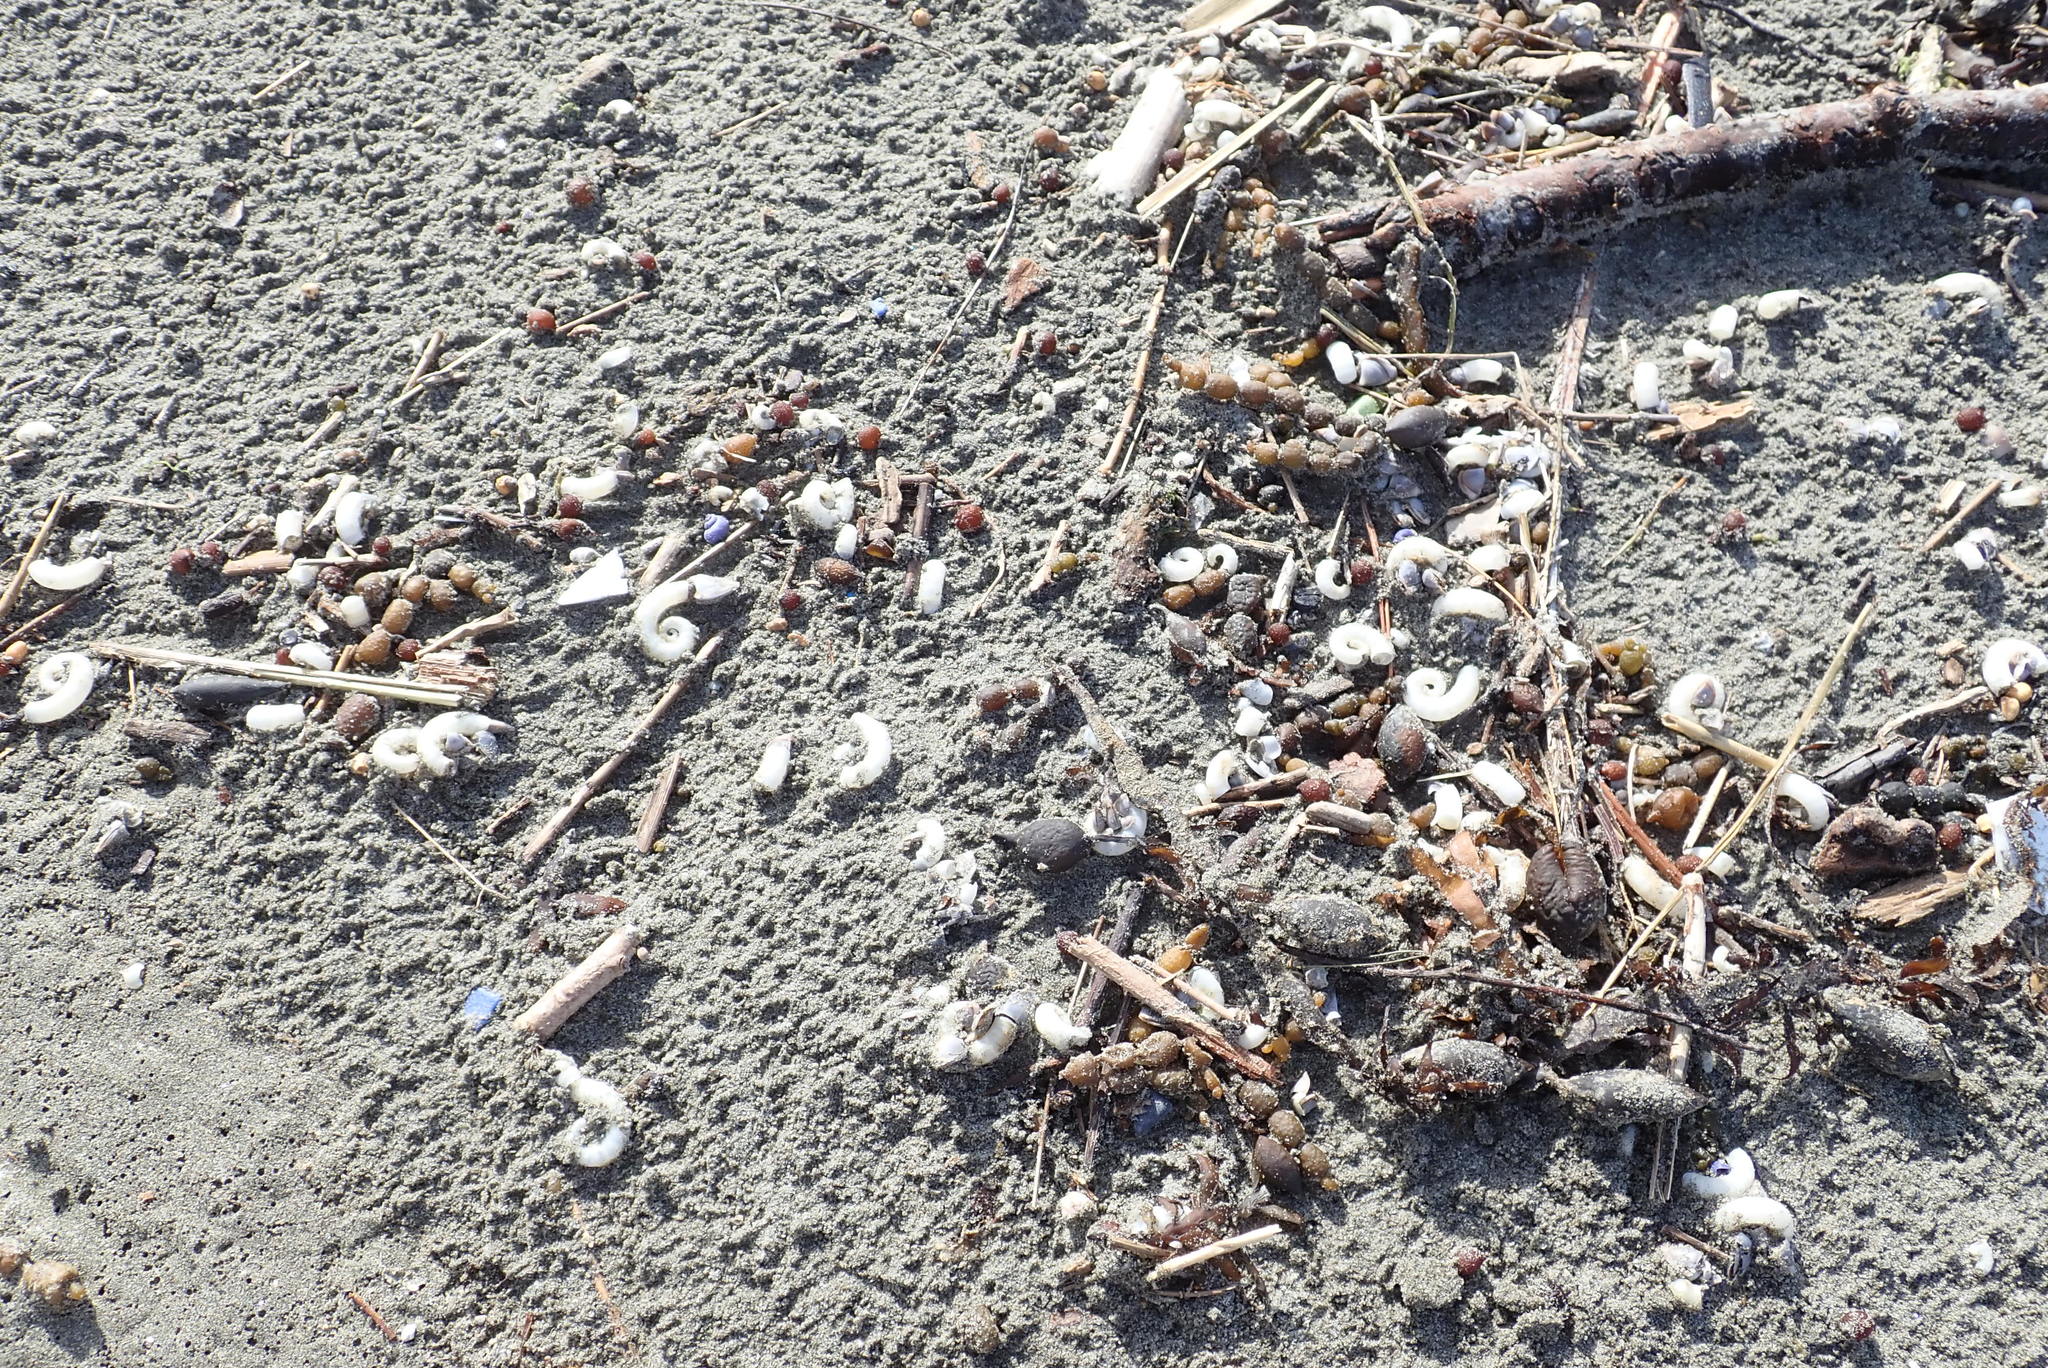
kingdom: Animalia
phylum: Mollusca
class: Cephalopoda
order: Spirulida
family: Spirulidae
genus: Spirula
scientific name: Spirula spirula
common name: Ram's horn squid
